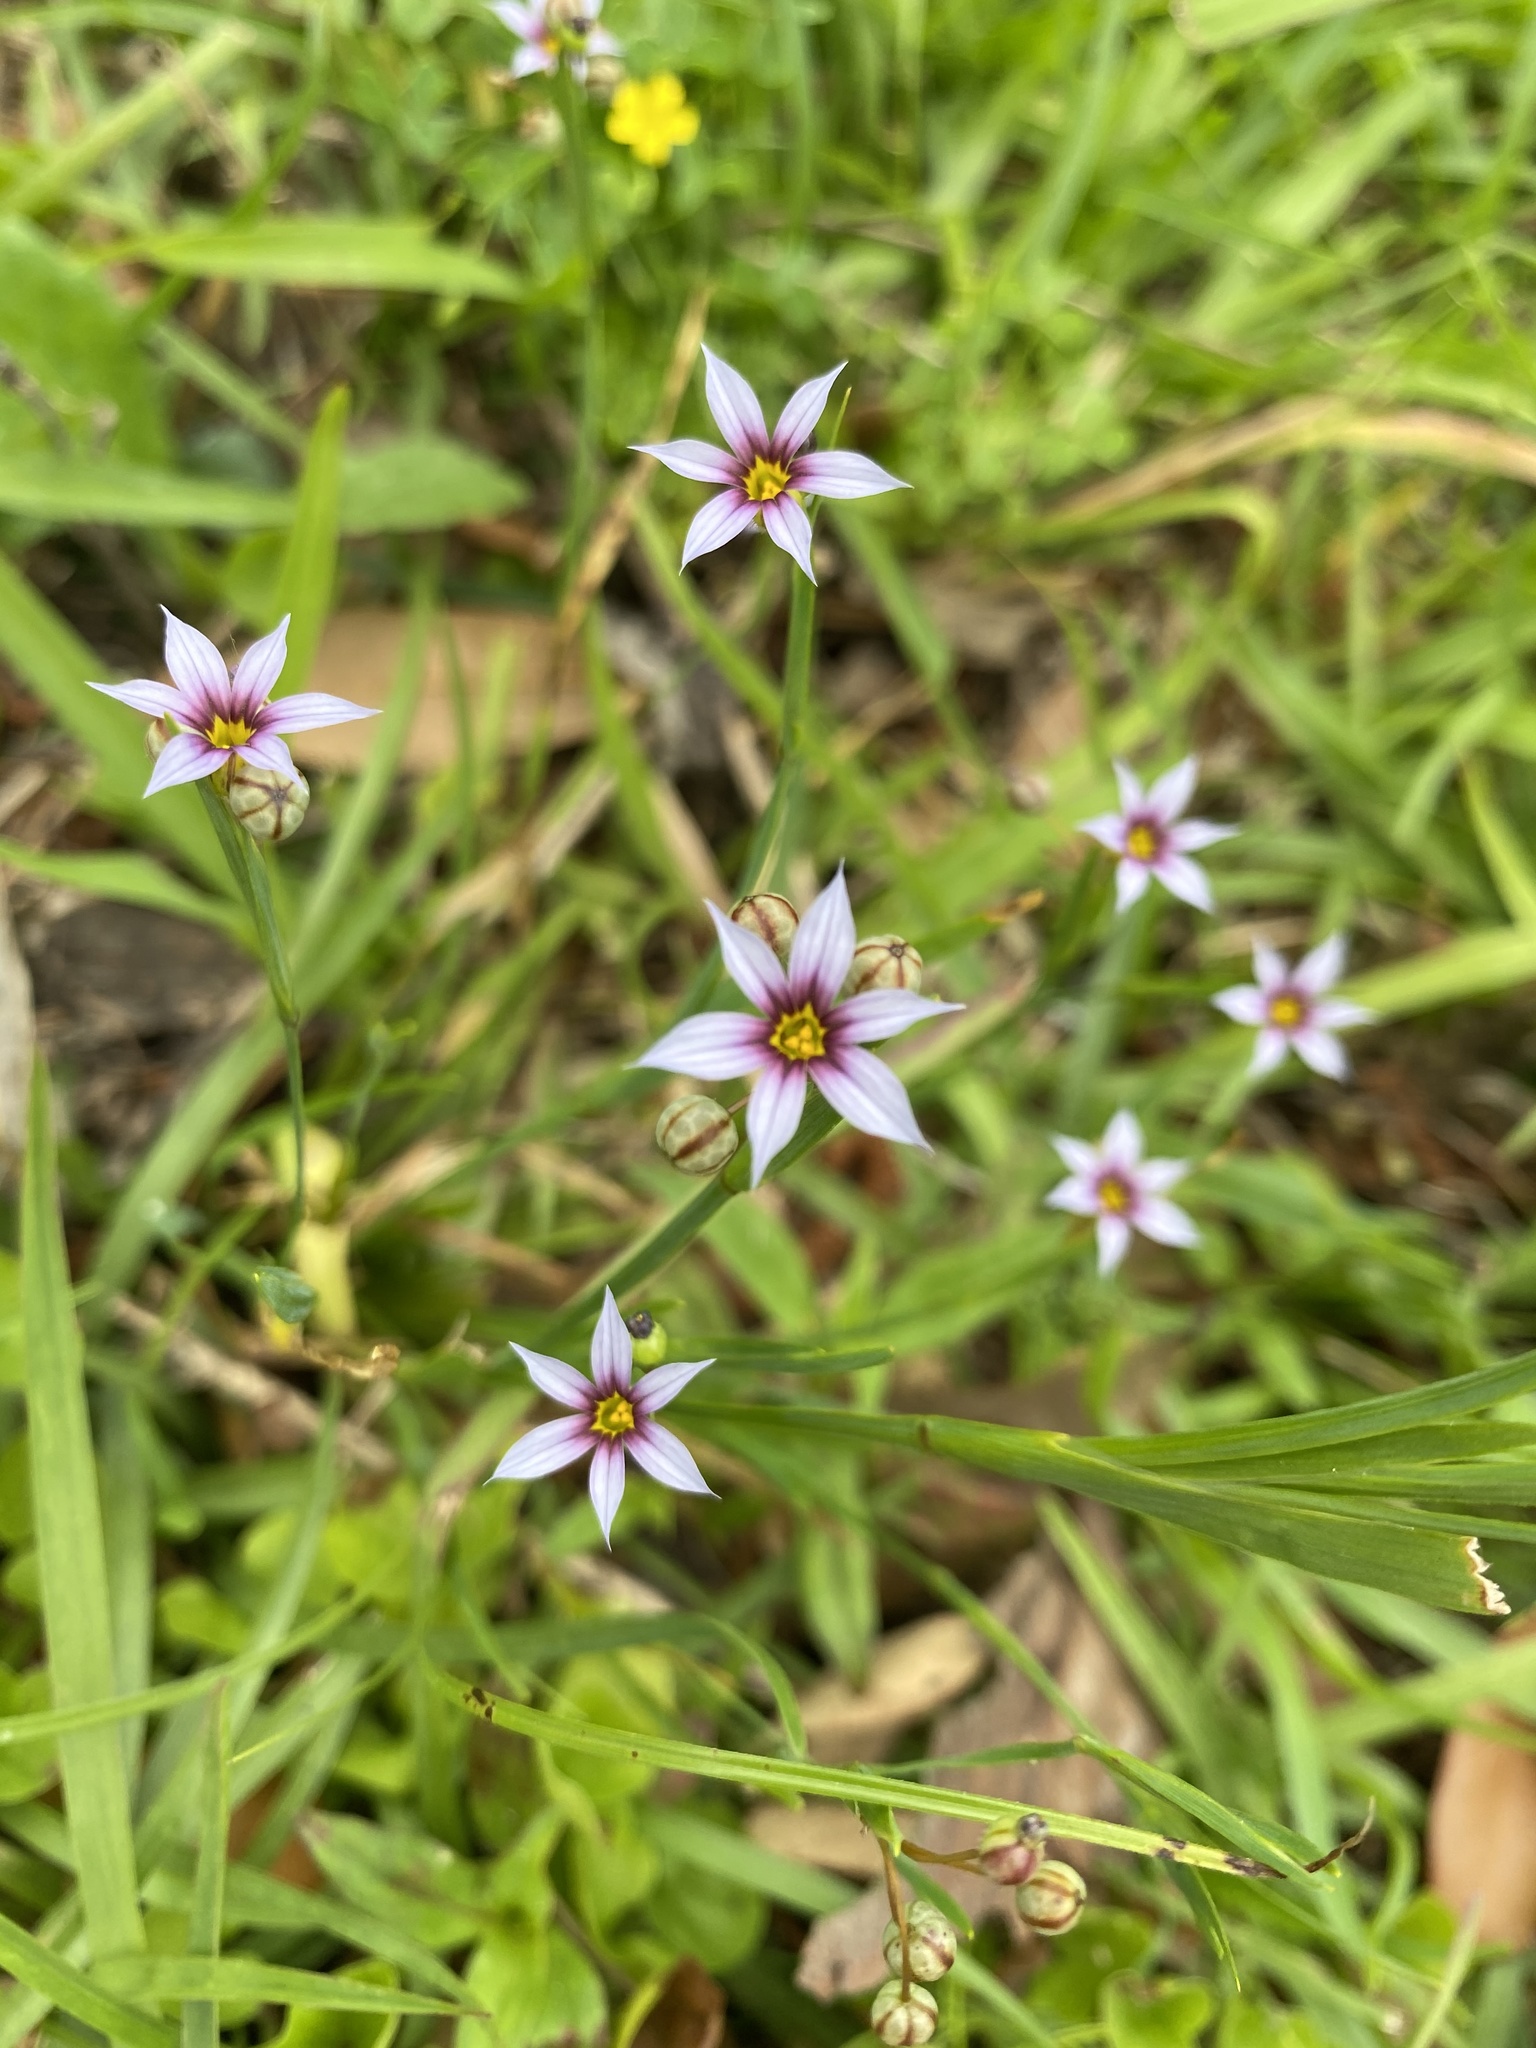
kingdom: Plantae
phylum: Tracheophyta
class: Liliopsida
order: Asparagales
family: Iridaceae
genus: Sisyrinchium
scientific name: Sisyrinchium micranthum
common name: Bermuda pigroot
